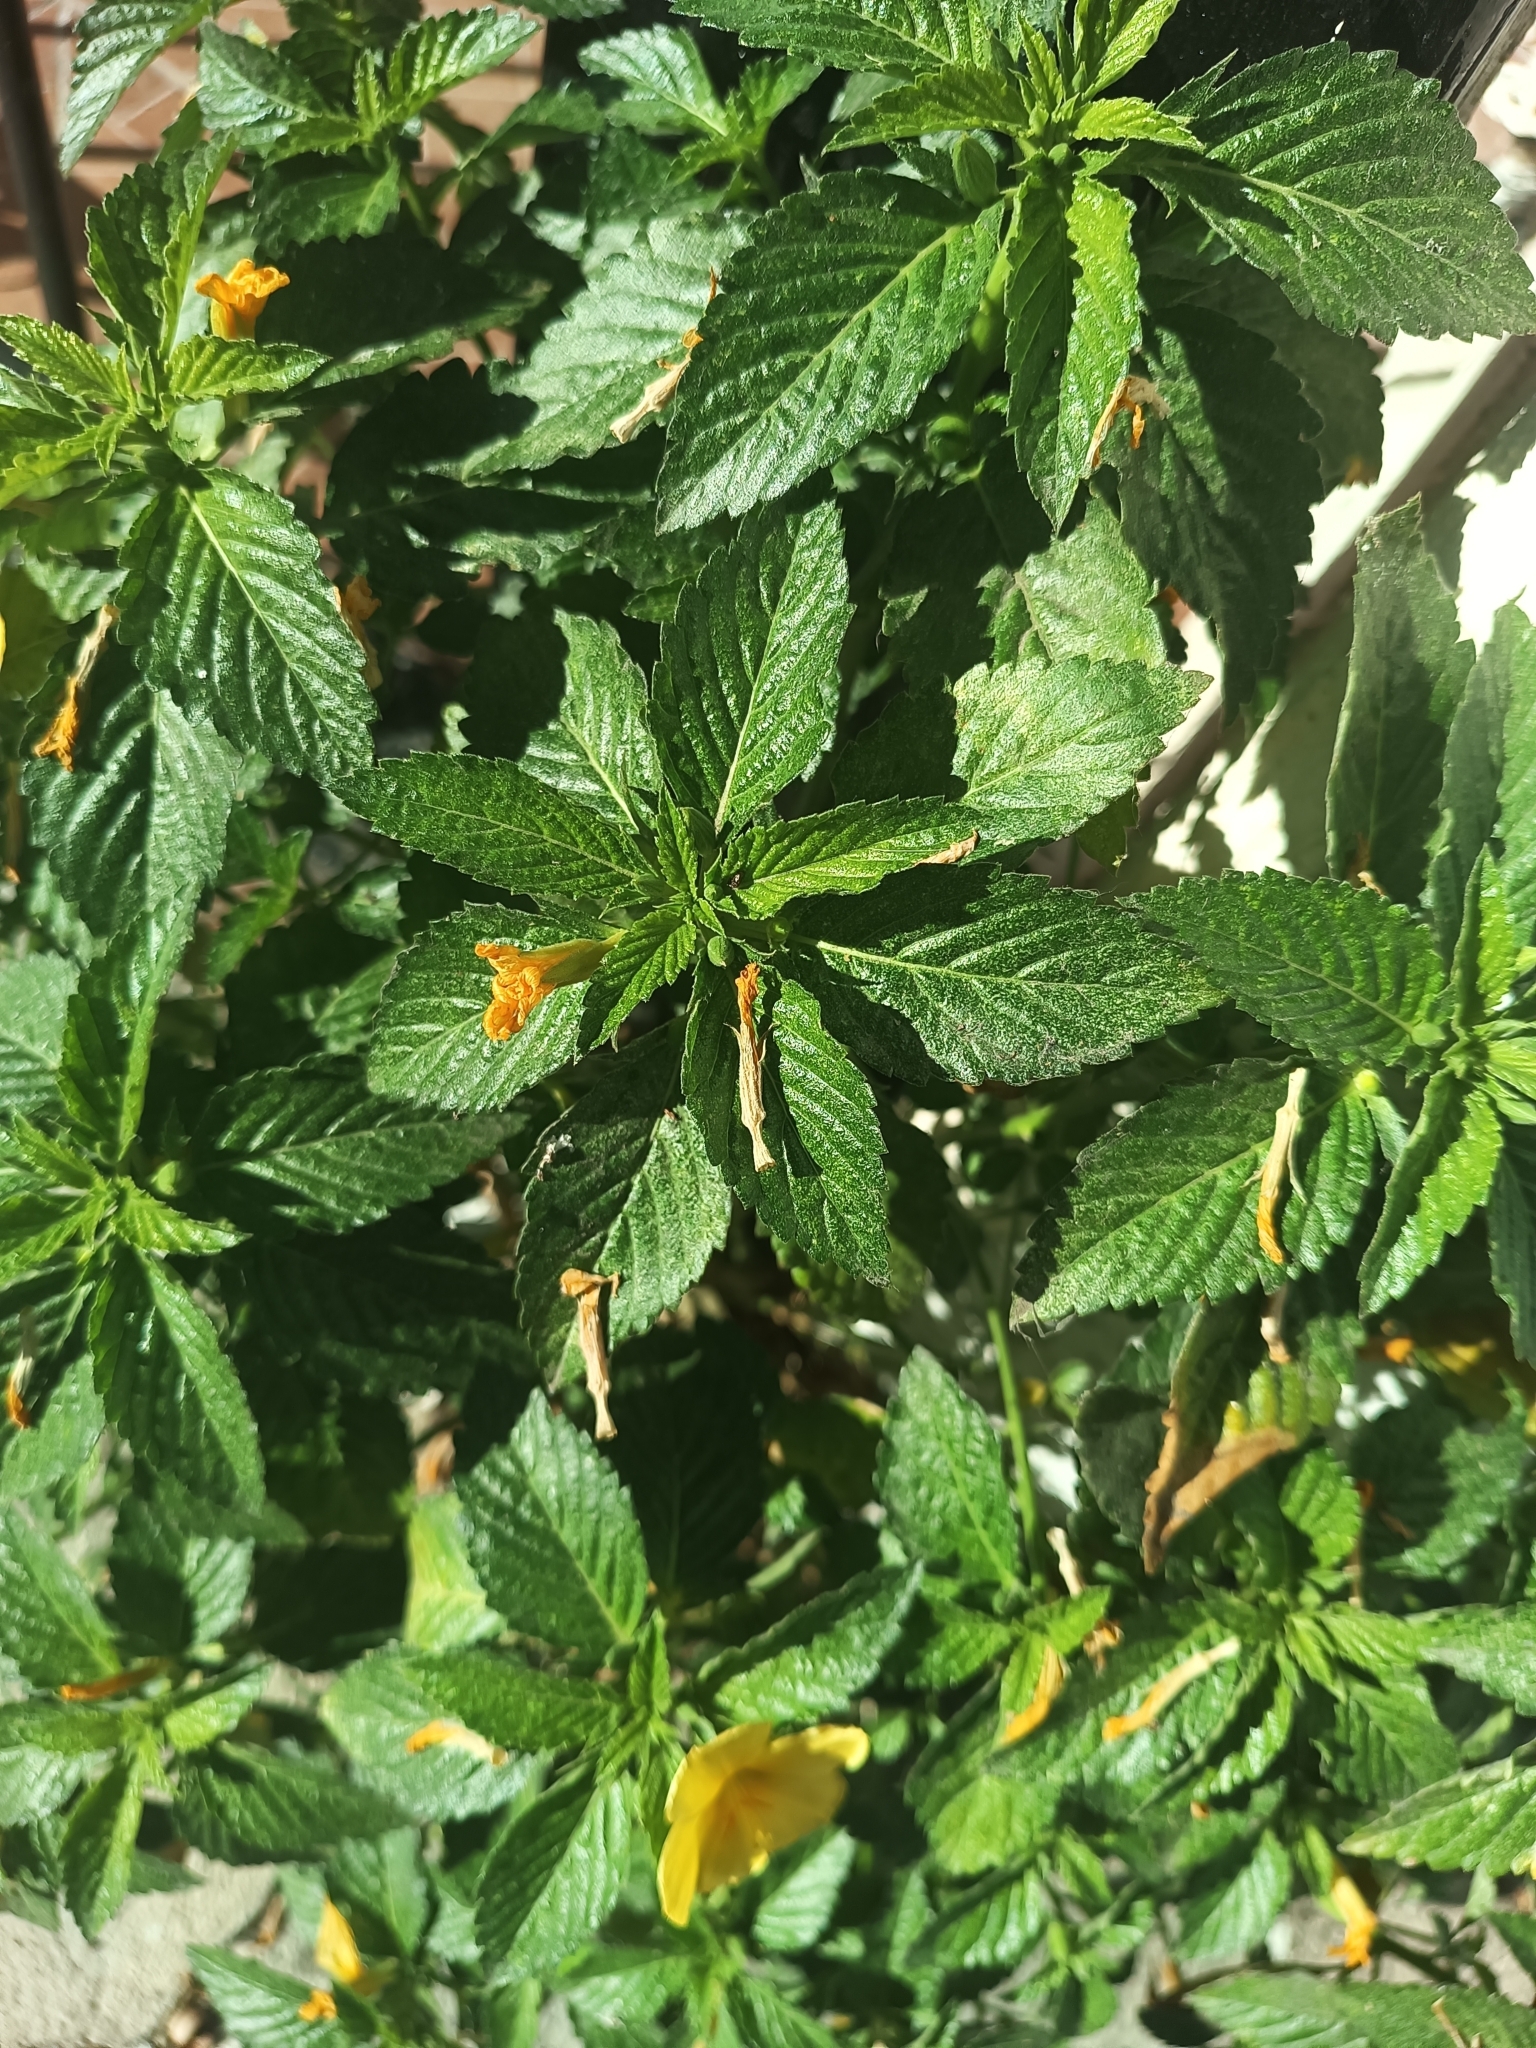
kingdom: Plantae
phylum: Tracheophyta
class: Magnoliopsida
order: Malpighiales
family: Turneraceae
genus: Turnera
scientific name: Turnera ulmifolia
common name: Ramgoat dashalong
